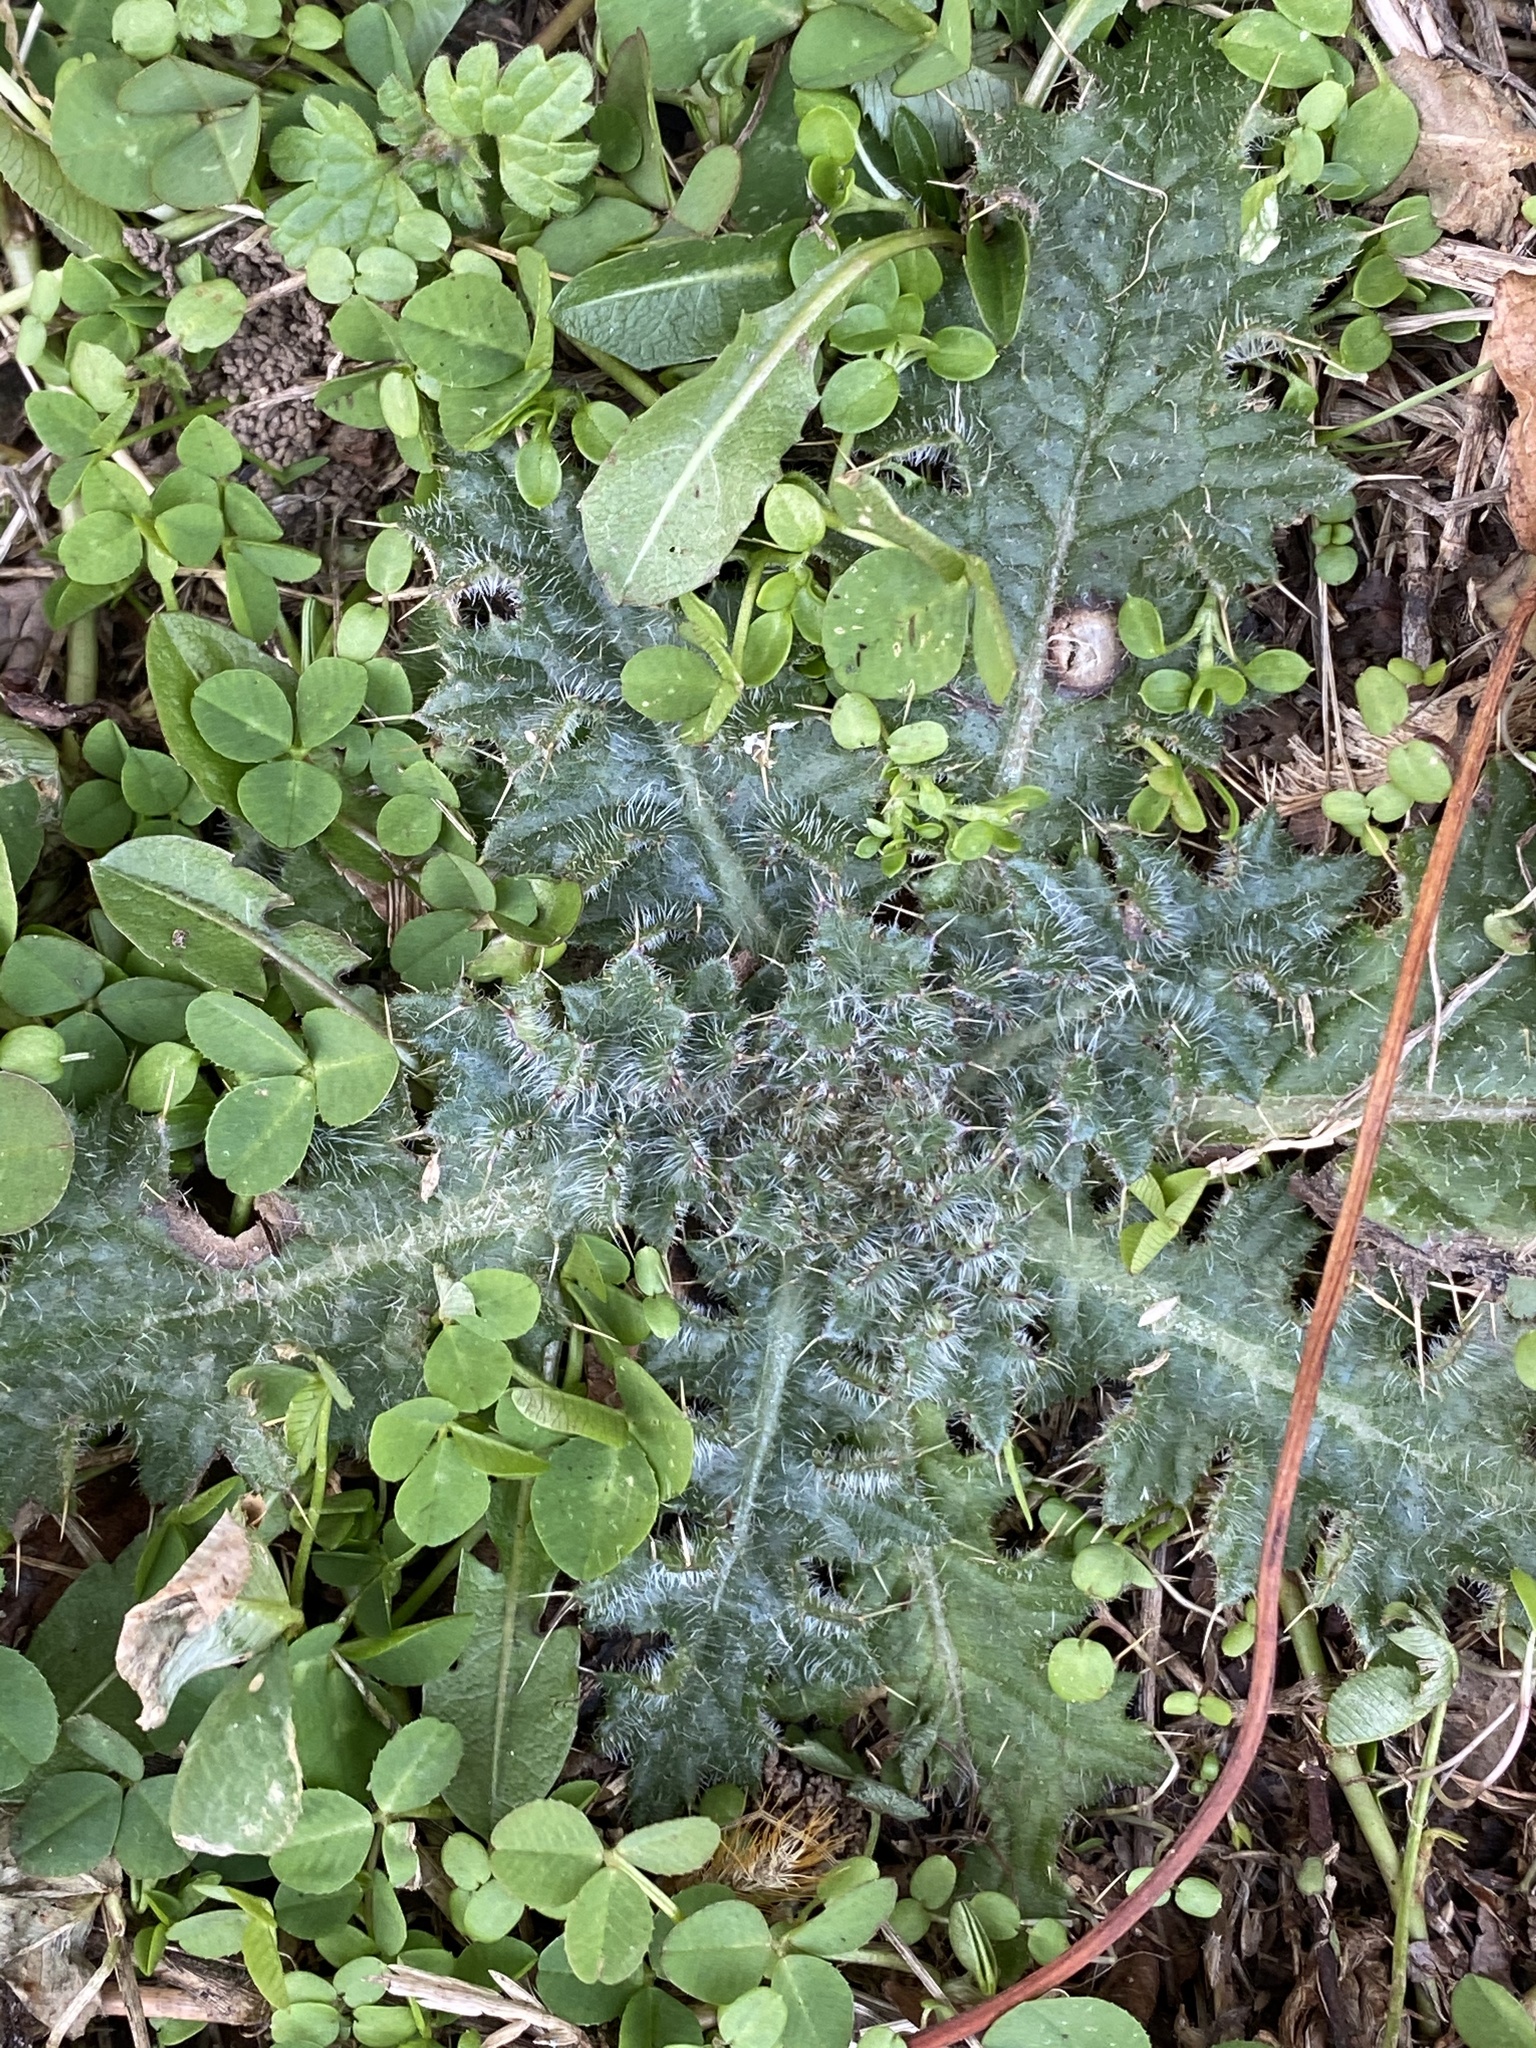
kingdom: Plantae
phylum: Tracheophyta
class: Magnoliopsida
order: Asterales
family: Asteraceae
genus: Cirsium
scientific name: Cirsium vulgare
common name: Bull thistle
